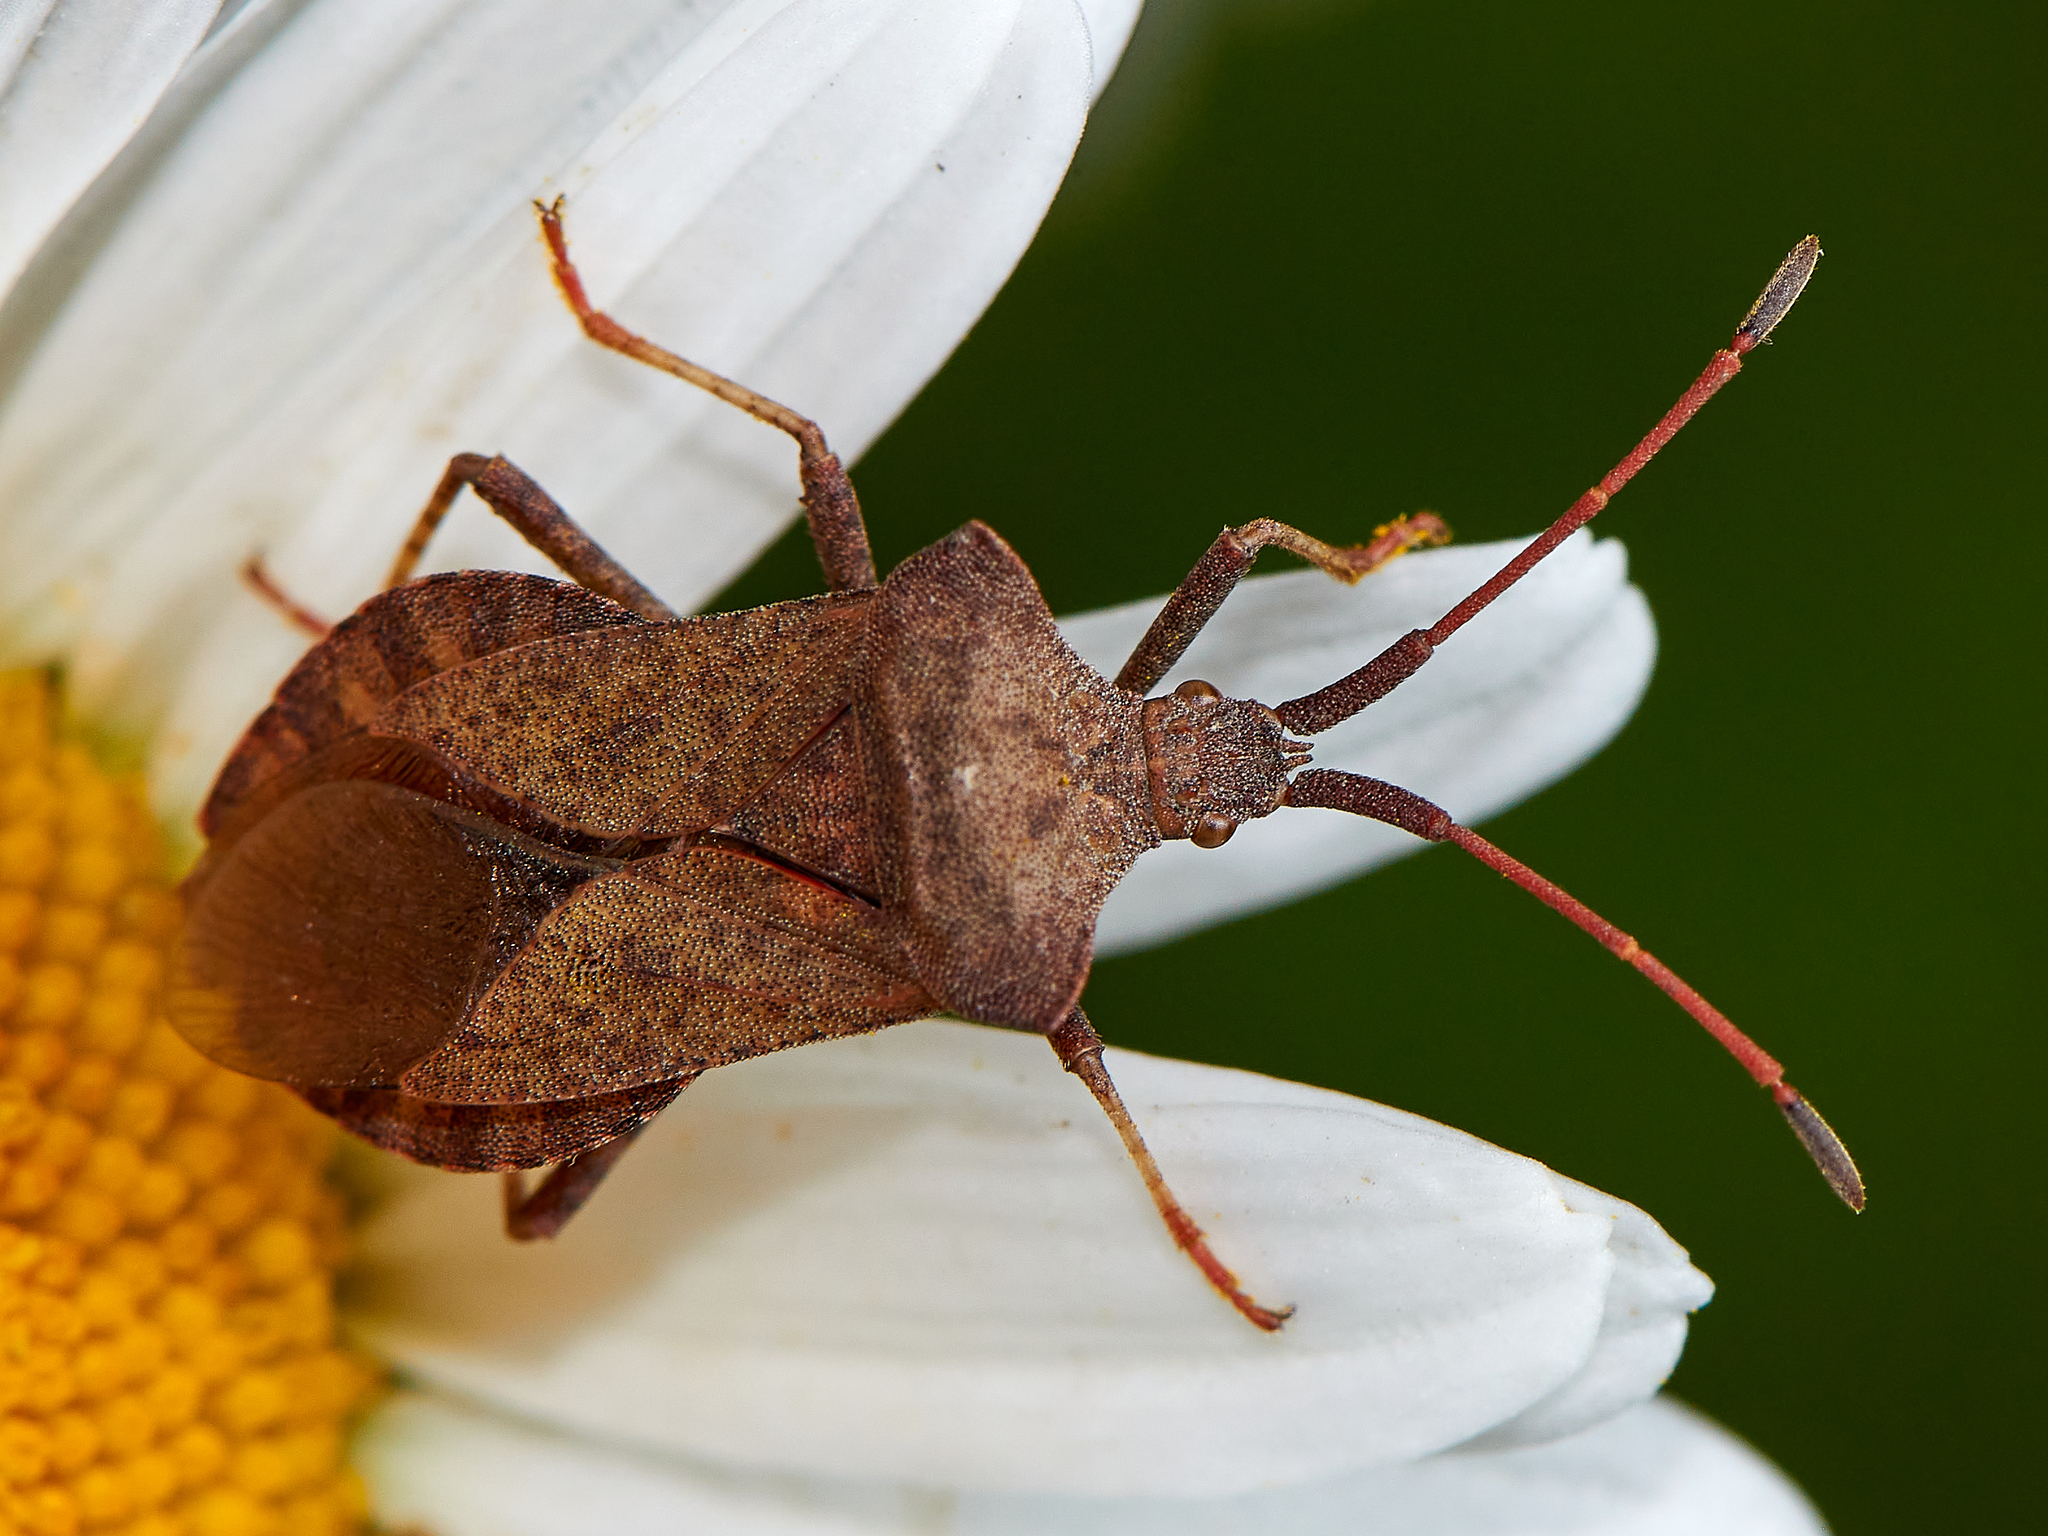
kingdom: Animalia
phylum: Arthropoda
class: Insecta
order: Hemiptera
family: Coreidae
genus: Coreus
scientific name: Coreus marginatus
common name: Dock bug
